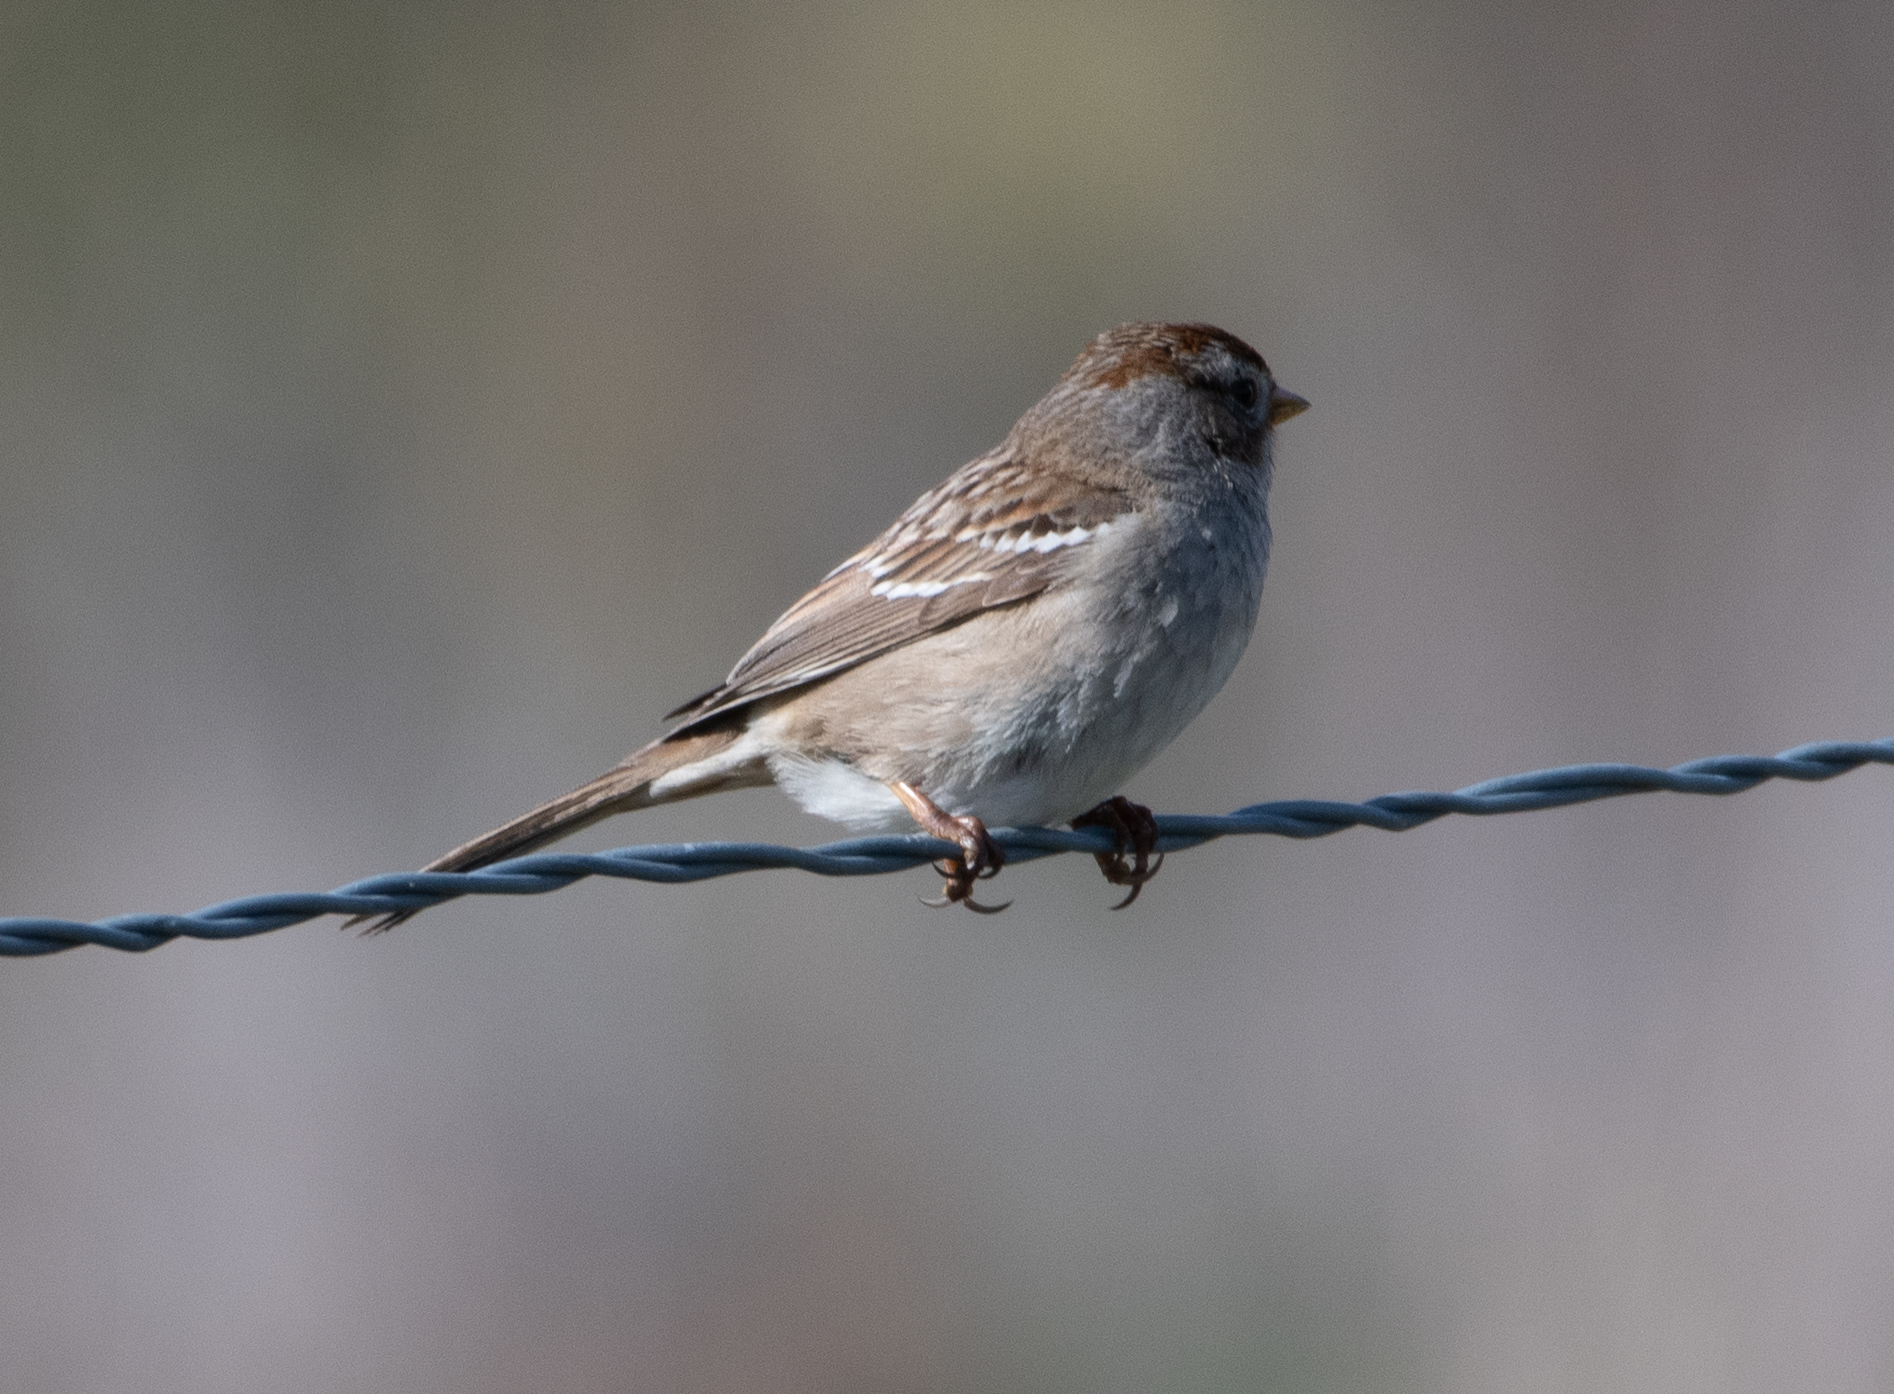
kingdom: Animalia
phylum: Chordata
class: Aves
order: Passeriformes
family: Passerellidae
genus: Zonotrichia
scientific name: Zonotrichia leucophrys
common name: White-crowned sparrow
